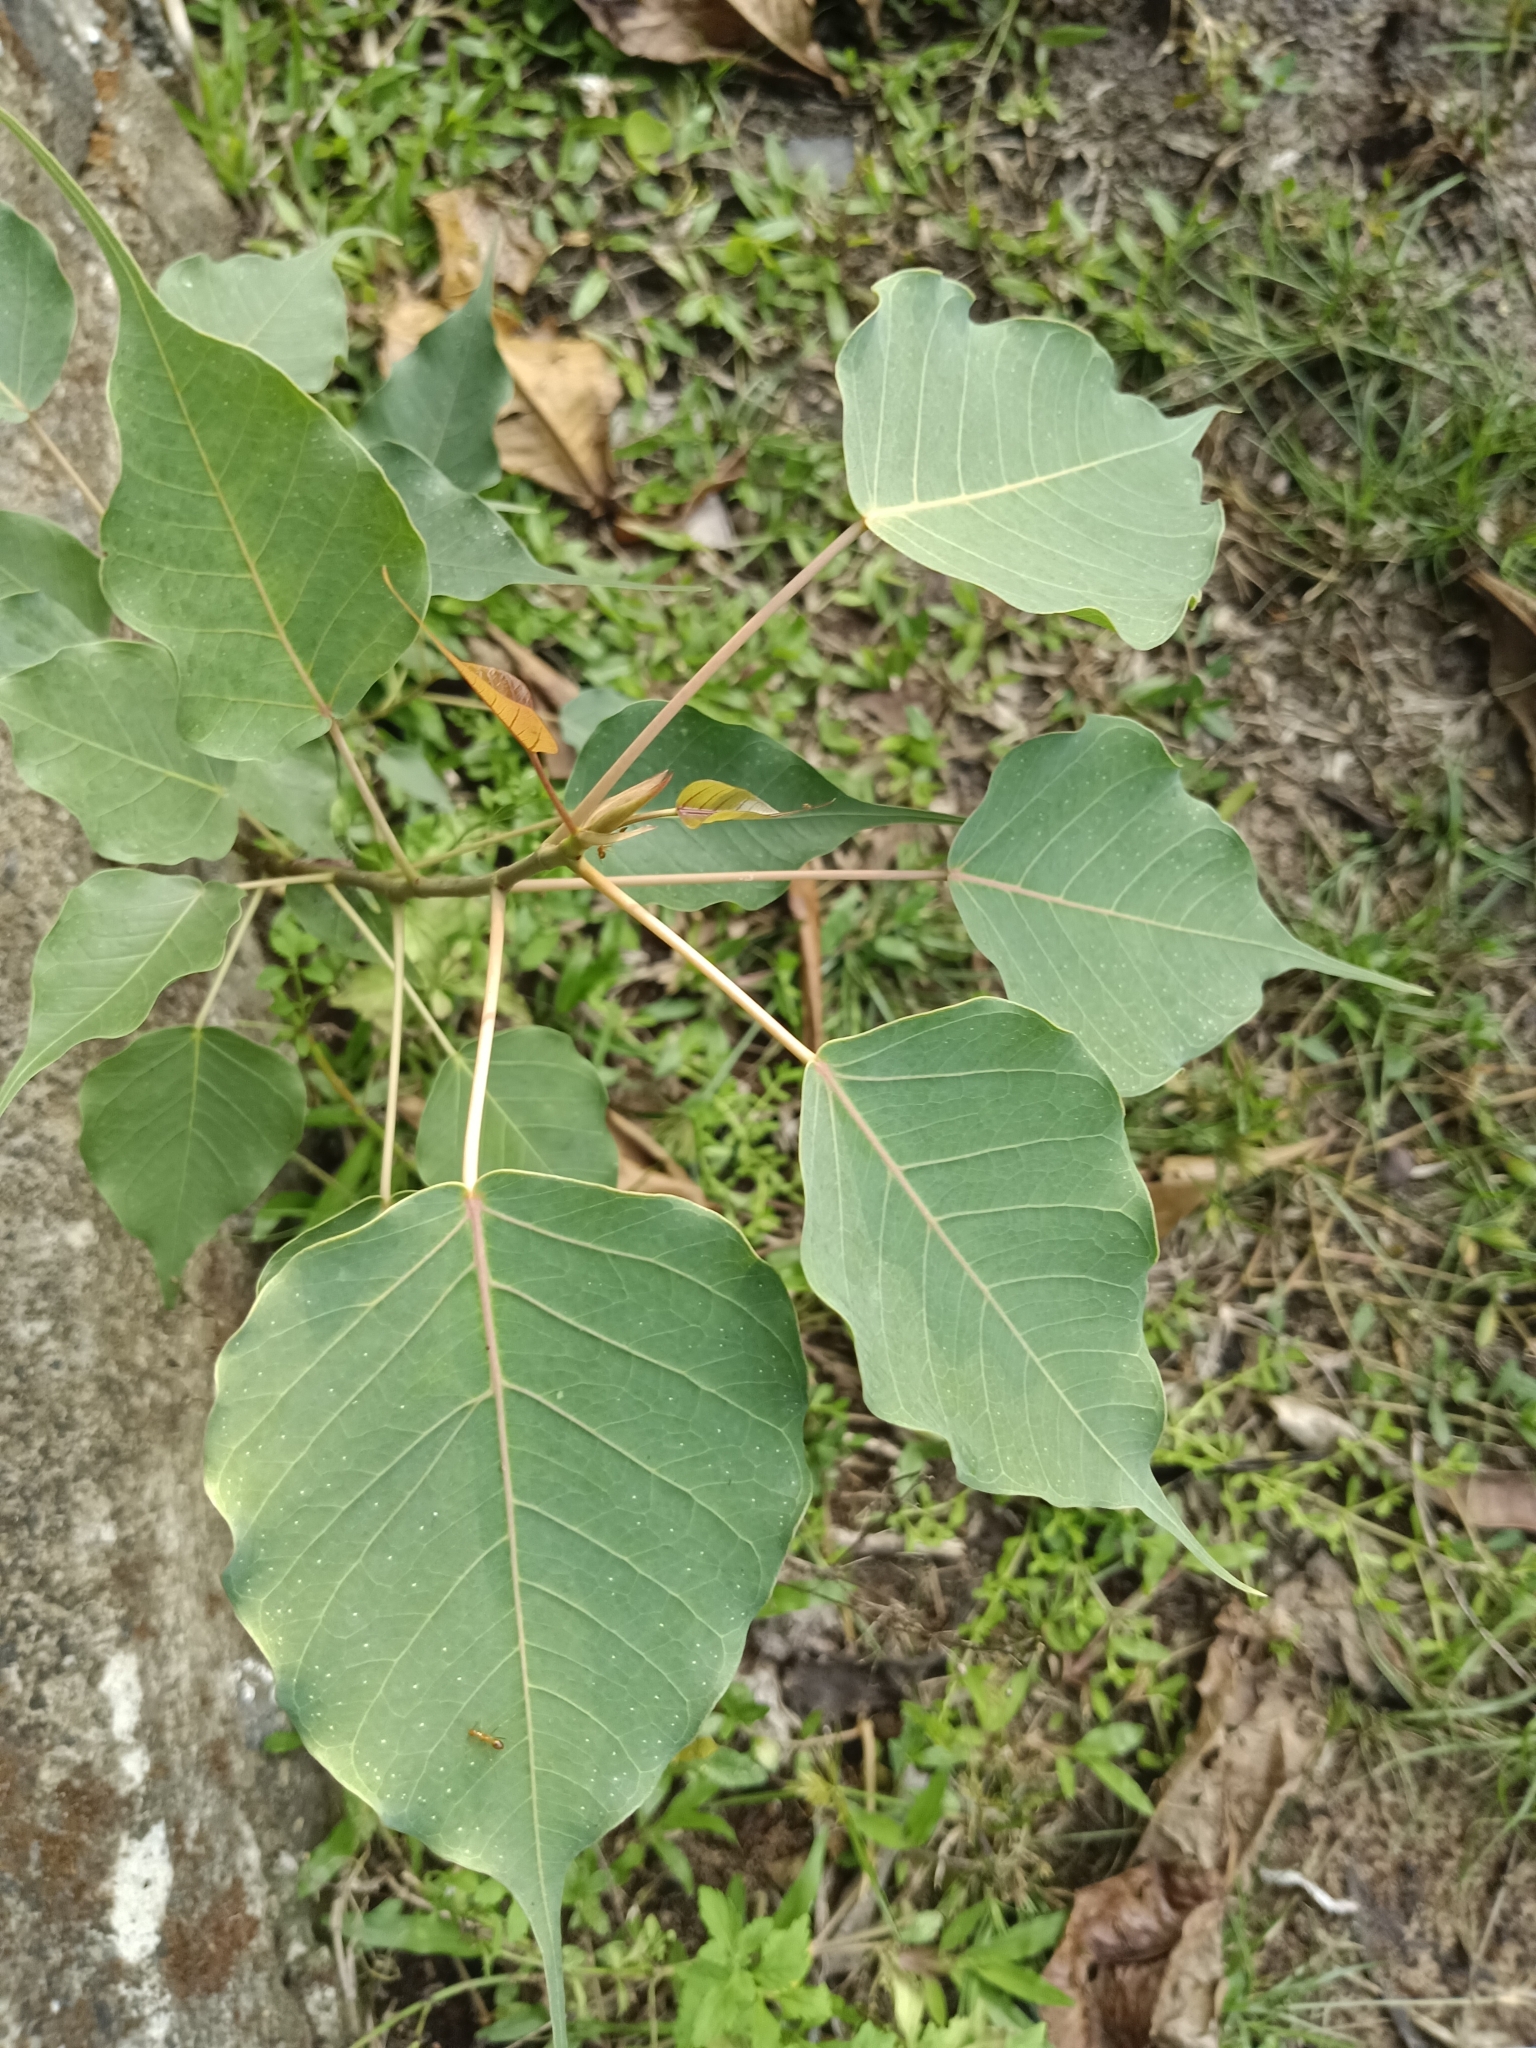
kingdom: Plantae
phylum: Tracheophyta
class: Magnoliopsida
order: Rosales
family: Moraceae
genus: Ficus
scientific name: Ficus religiosa
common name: Bodhi tree
